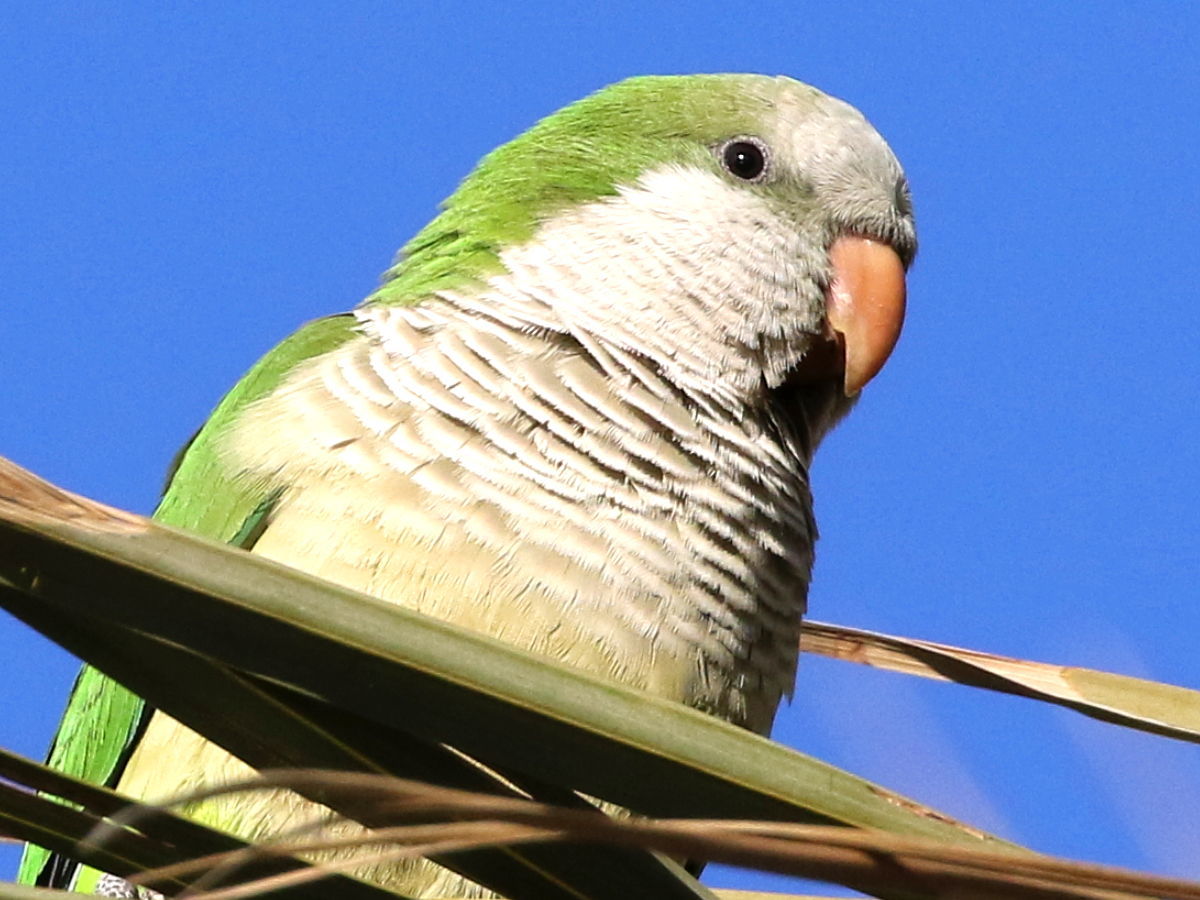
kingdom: Animalia
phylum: Chordata
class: Aves
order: Psittaciformes
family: Psittacidae
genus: Myiopsitta
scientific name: Myiopsitta monachus
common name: Monk parakeet
